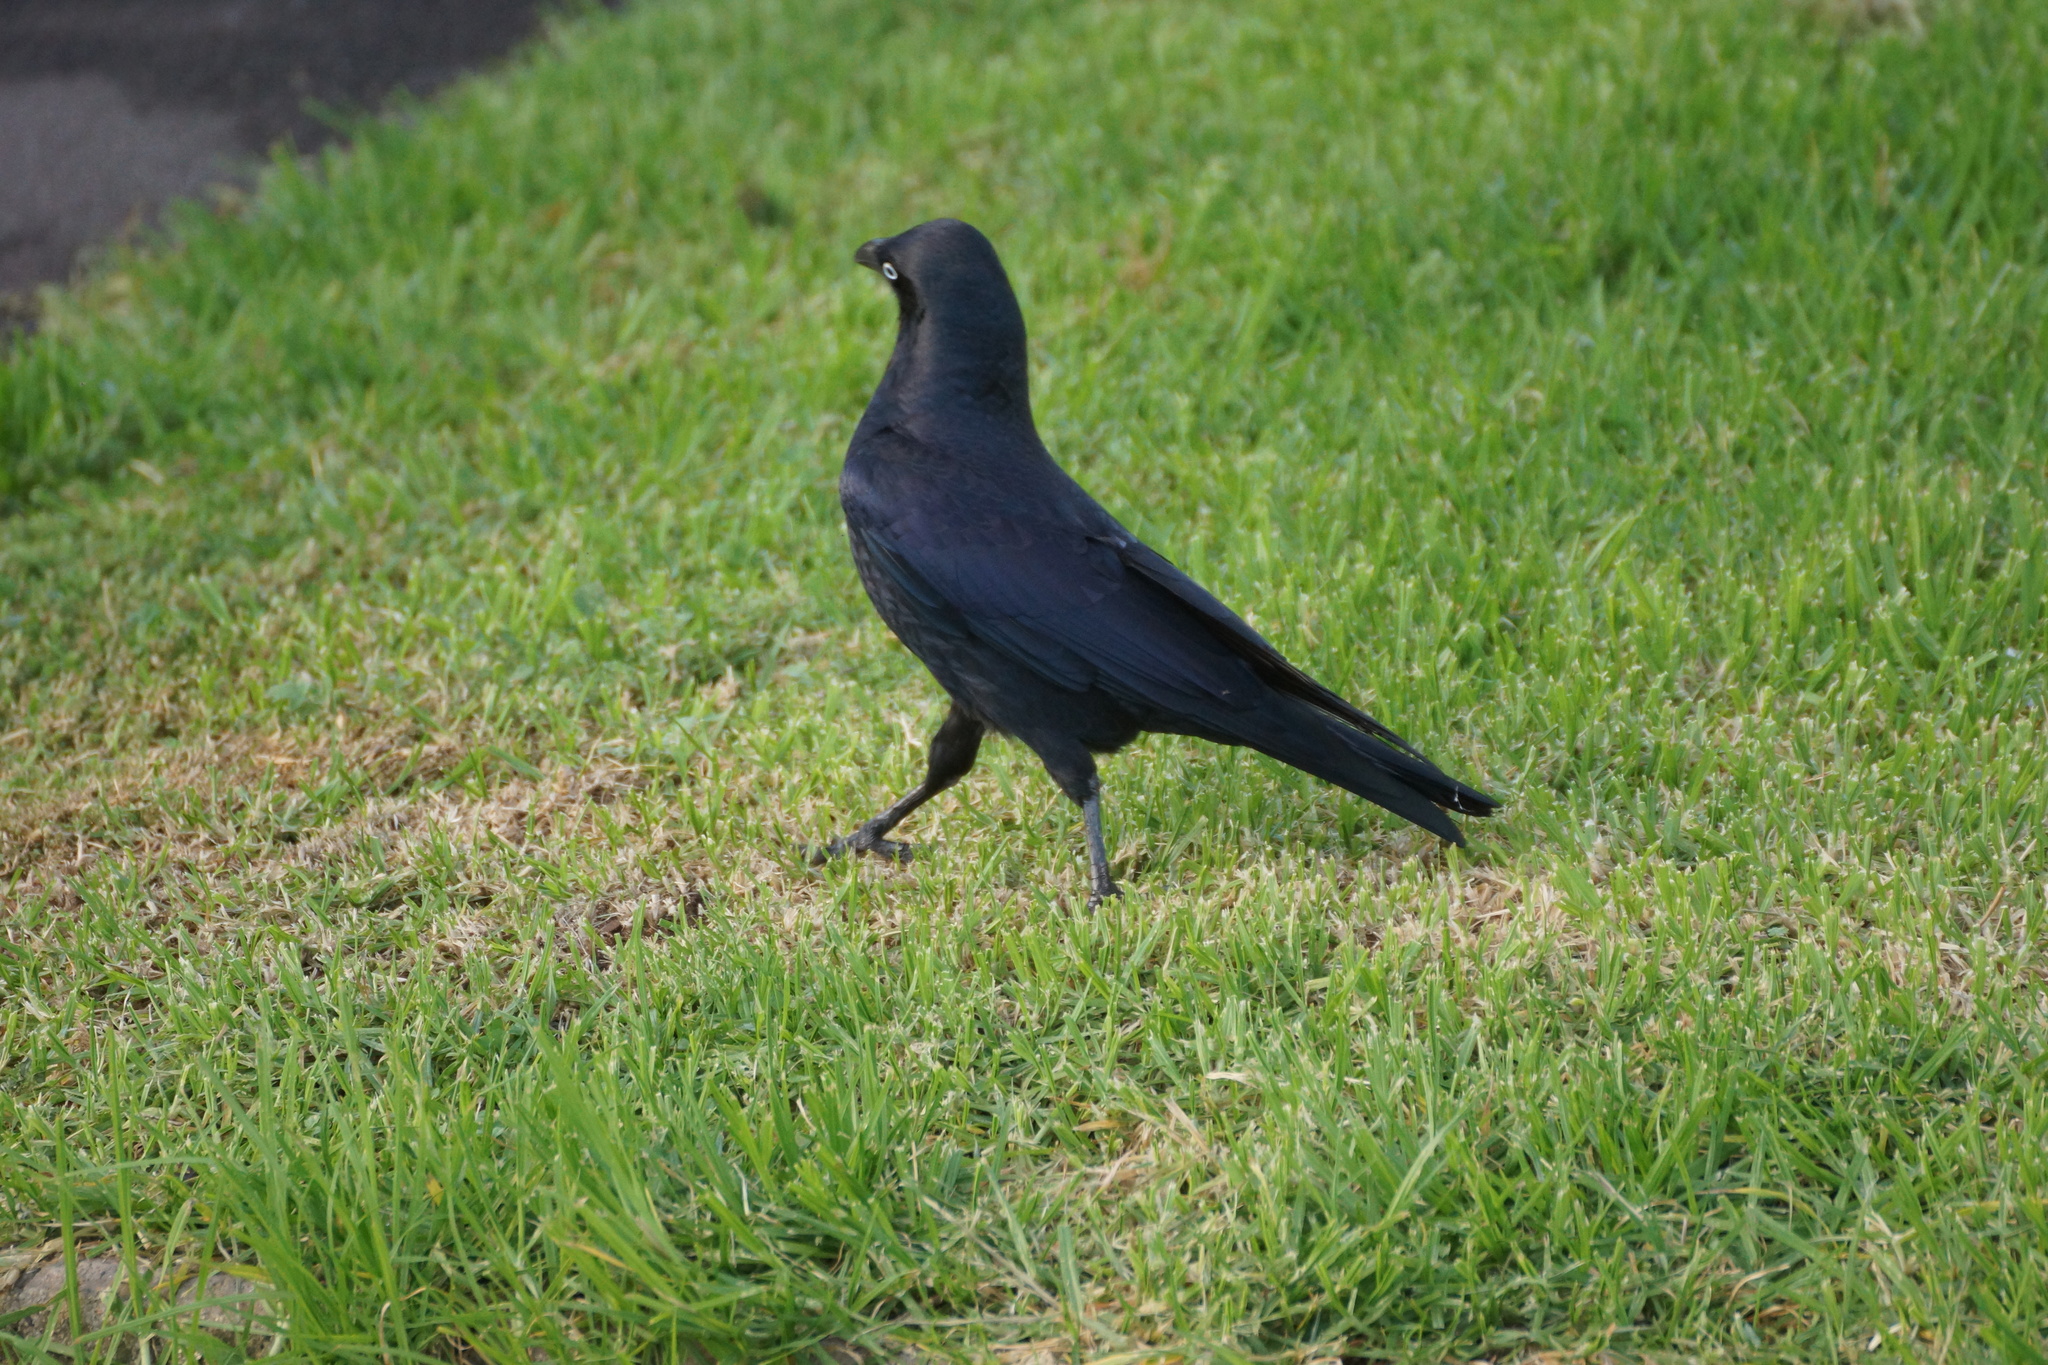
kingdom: Animalia
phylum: Chordata
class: Aves
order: Passeriformes
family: Corvidae
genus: Corvus
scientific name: Corvus mellori
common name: Little raven
